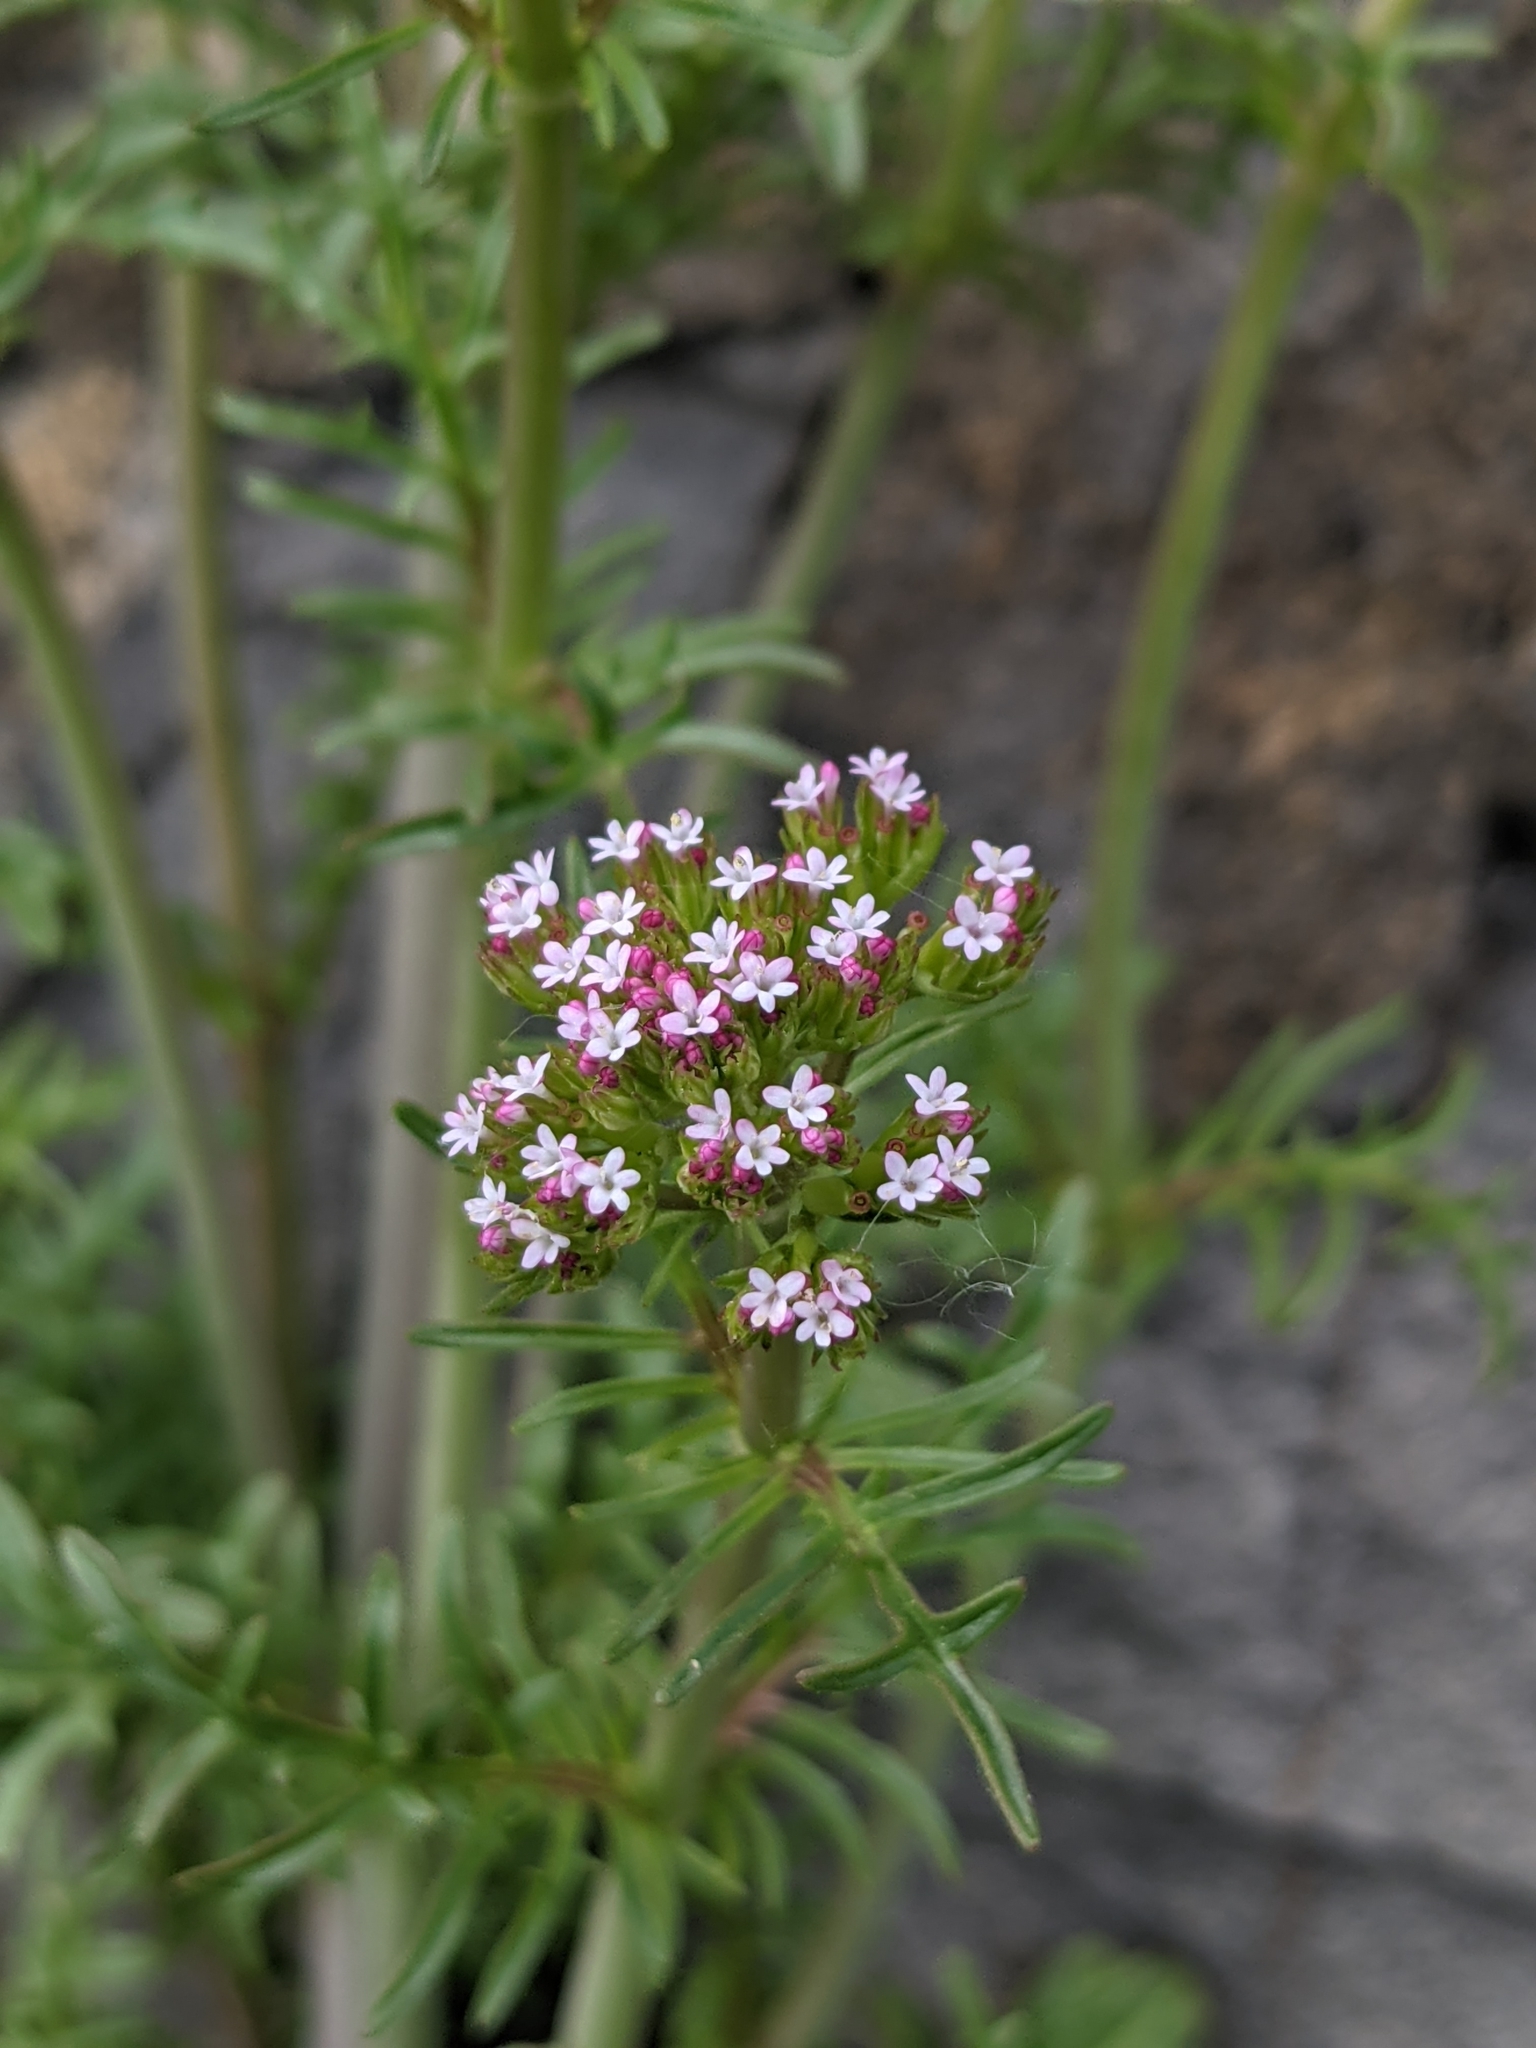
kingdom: Plantae
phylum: Tracheophyta
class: Magnoliopsida
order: Dipsacales
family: Caprifoliaceae
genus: Centranthus
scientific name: Centranthus calcitrapae
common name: Annual valerian
